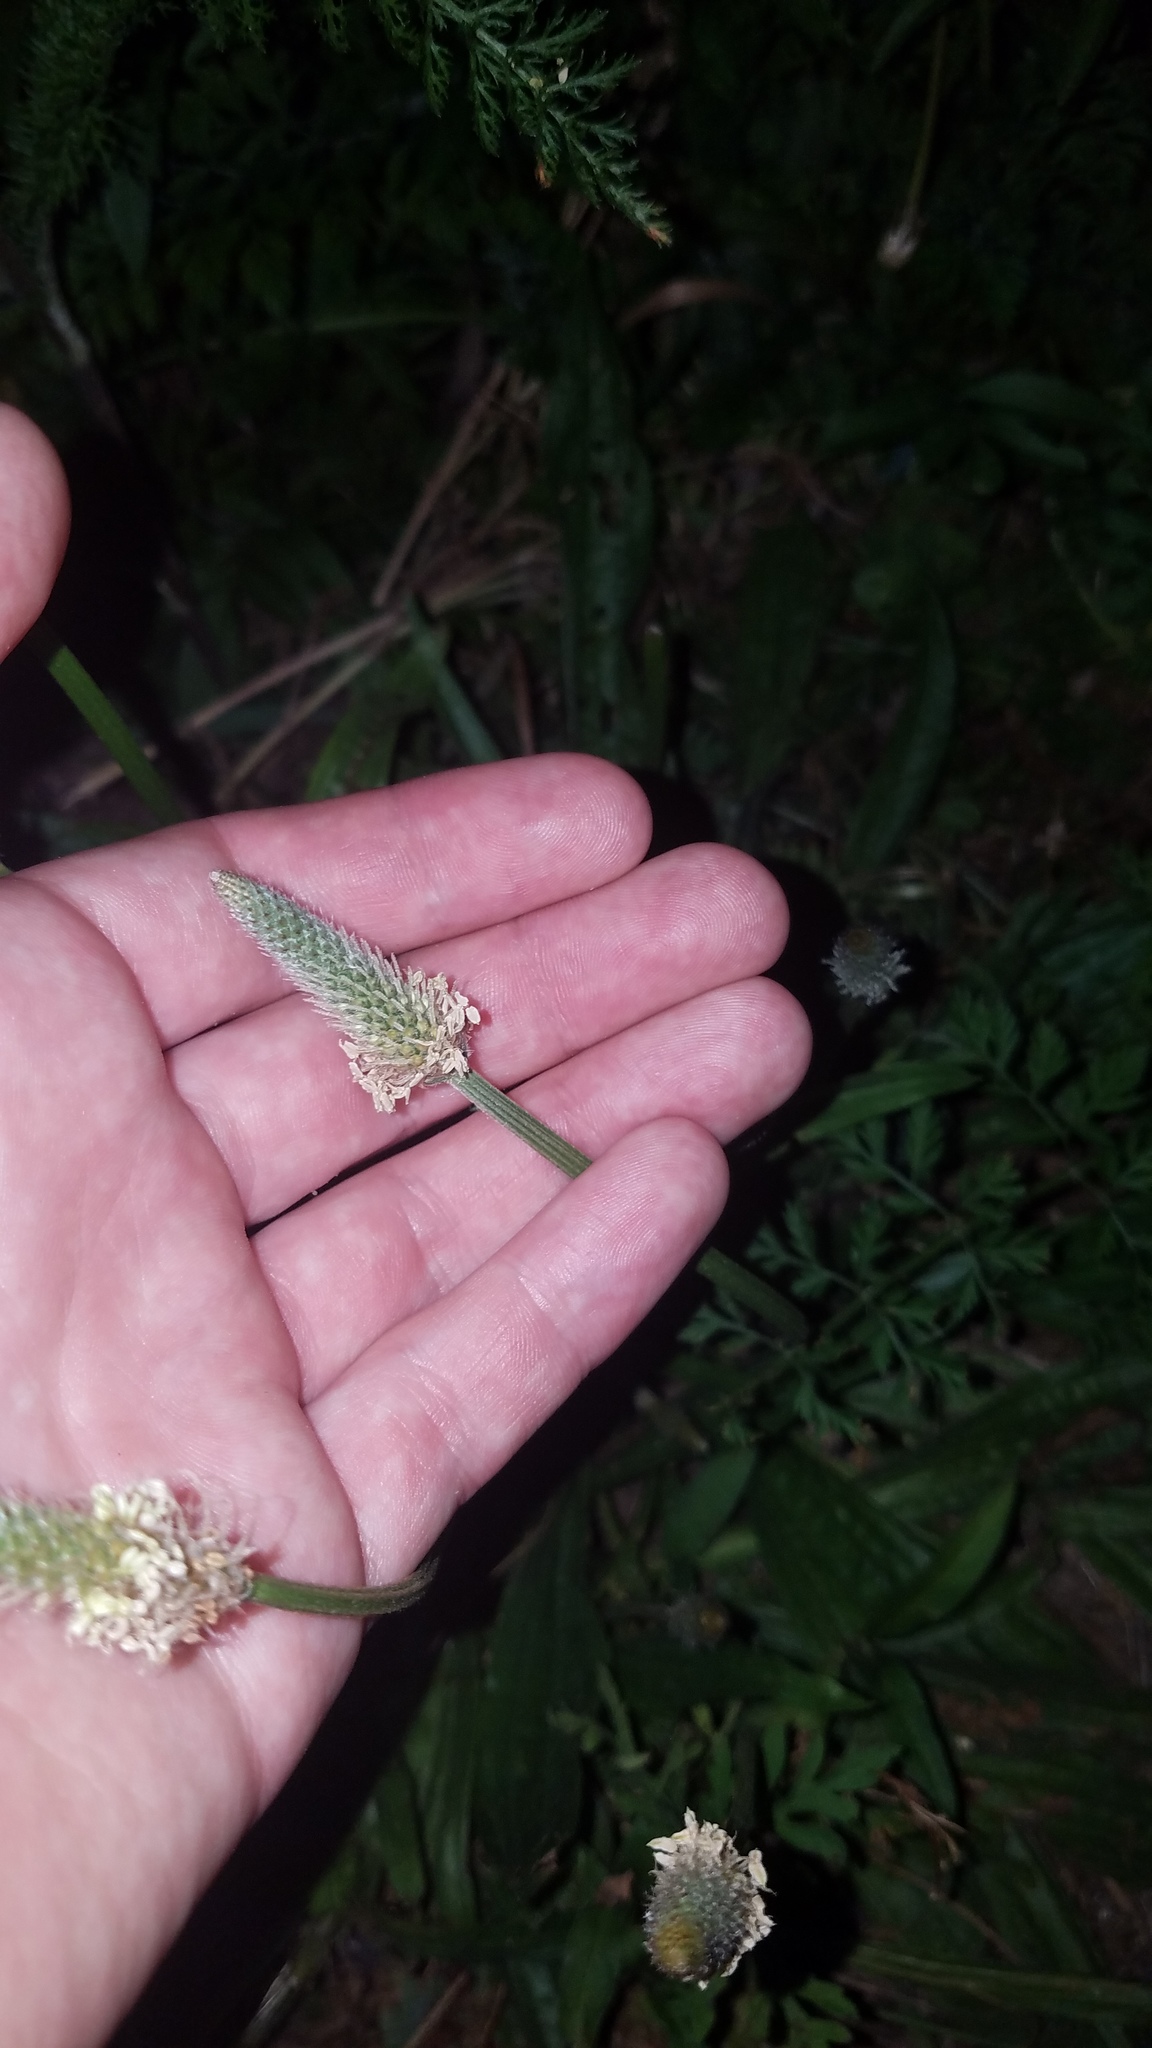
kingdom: Plantae
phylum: Tracheophyta
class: Magnoliopsida
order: Lamiales
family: Plantaginaceae
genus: Plantago
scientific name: Plantago lanceolata
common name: Ribwort plantain
